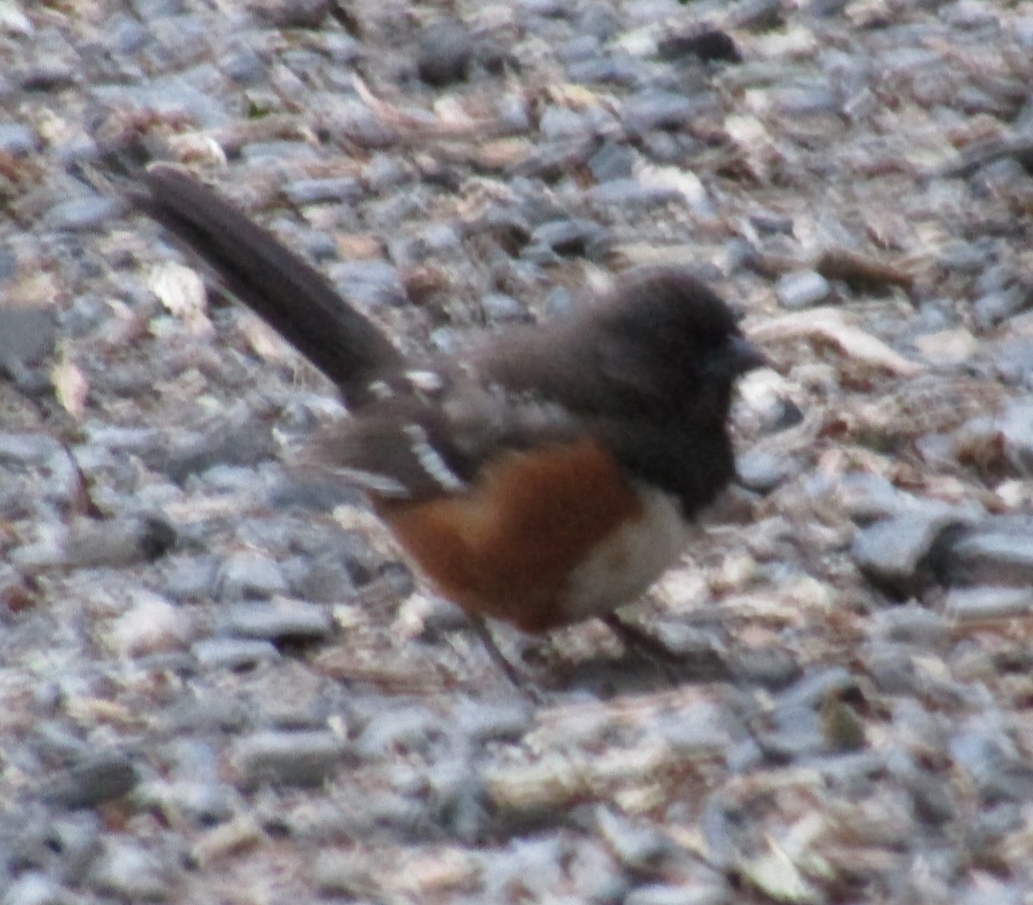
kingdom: Animalia
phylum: Chordata
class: Aves
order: Passeriformes
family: Passerellidae
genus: Pipilo
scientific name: Pipilo maculatus
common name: Spotted towhee
